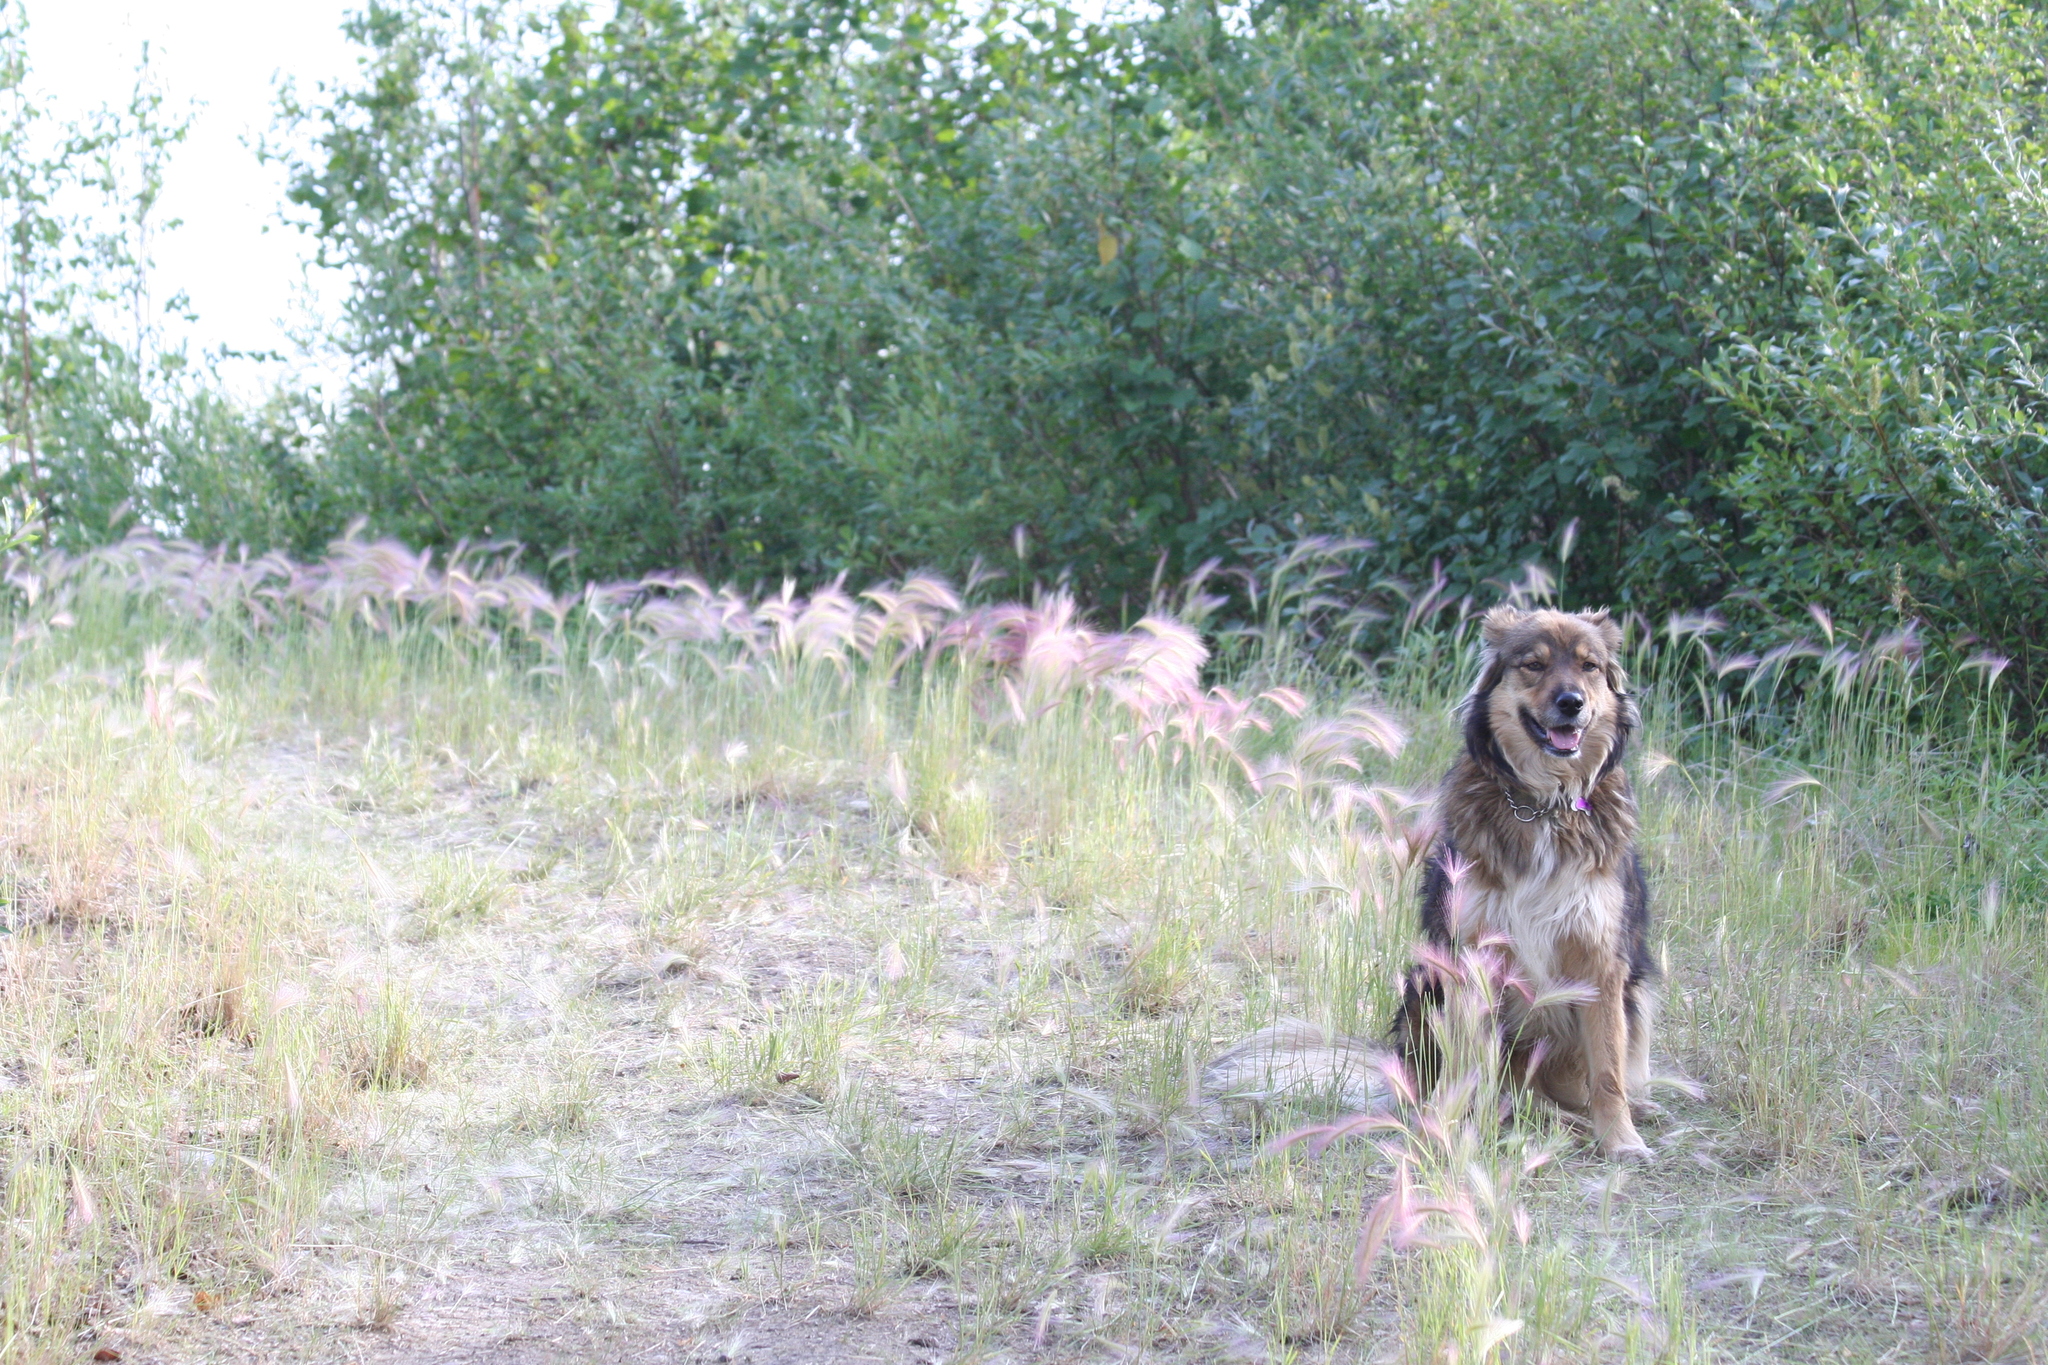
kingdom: Plantae
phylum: Tracheophyta
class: Liliopsida
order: Poales
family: Poaceae
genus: Hordeum
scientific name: Hordeum jubatum
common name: Foxtail barley
